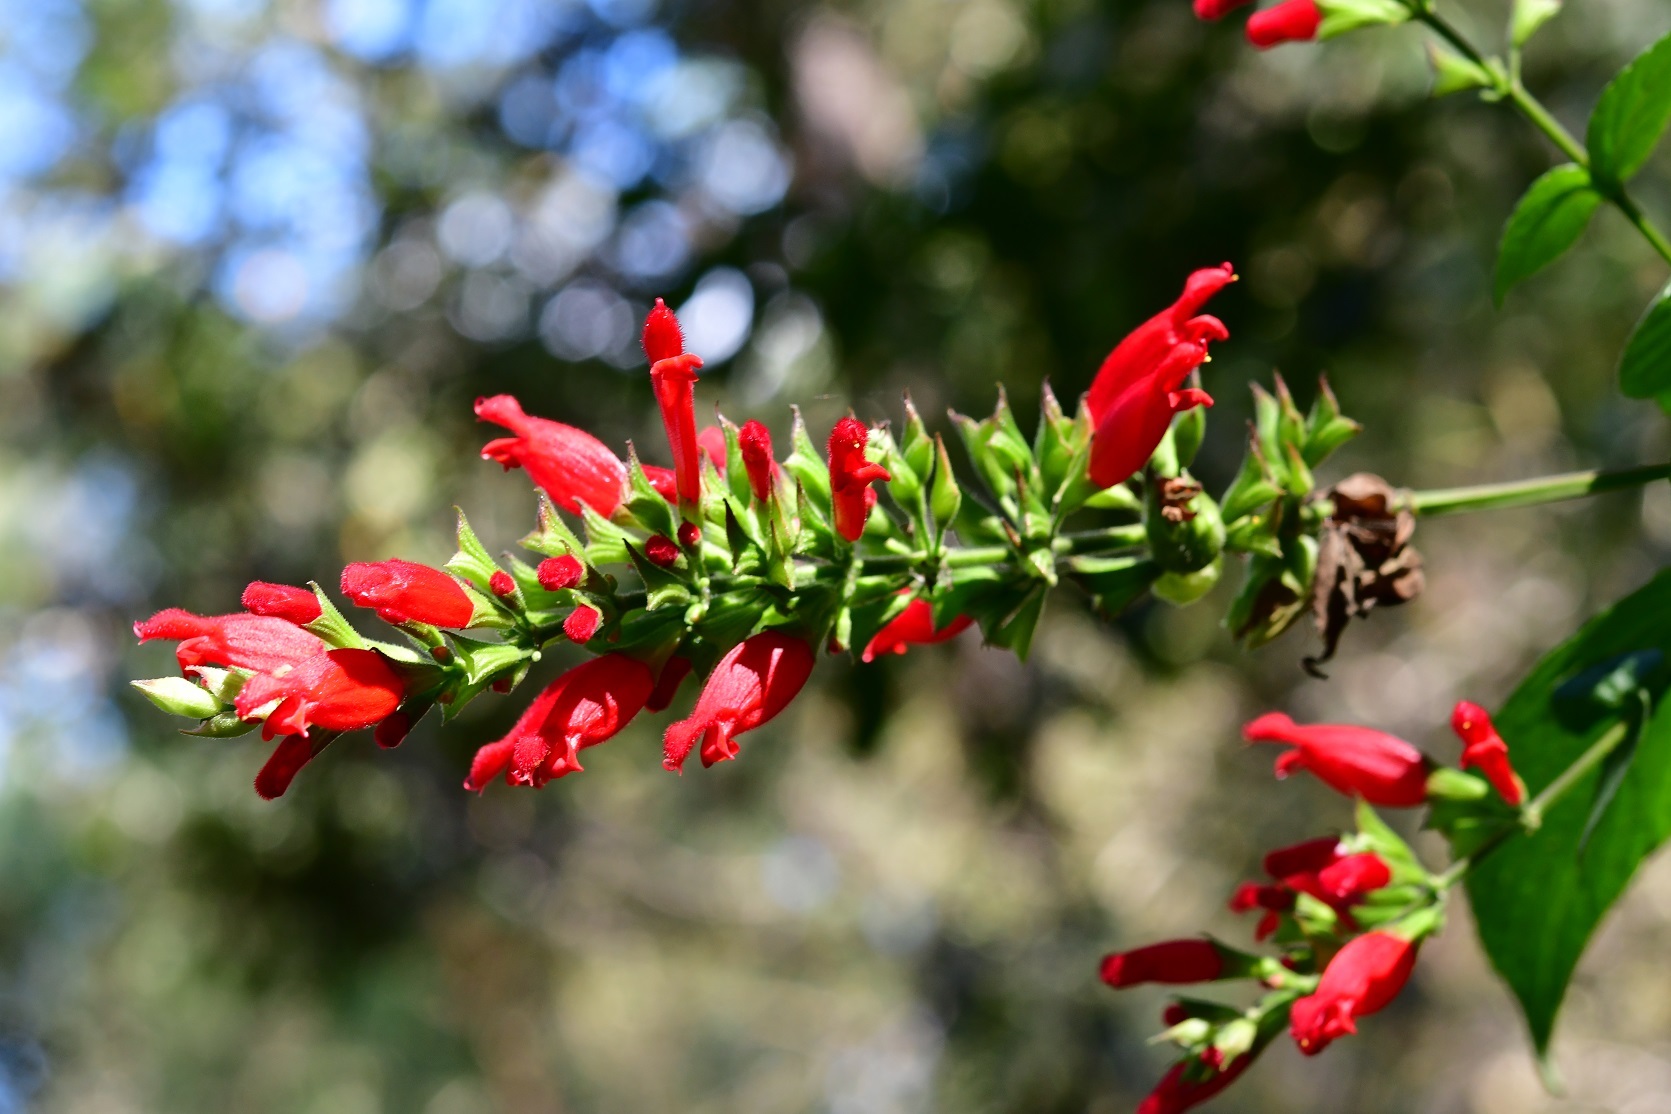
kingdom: Plantae
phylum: Tracheophyta
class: Magnoliopsida
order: Lamiales
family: Lamiaceae
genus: Salvia
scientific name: Salvia holwayi
